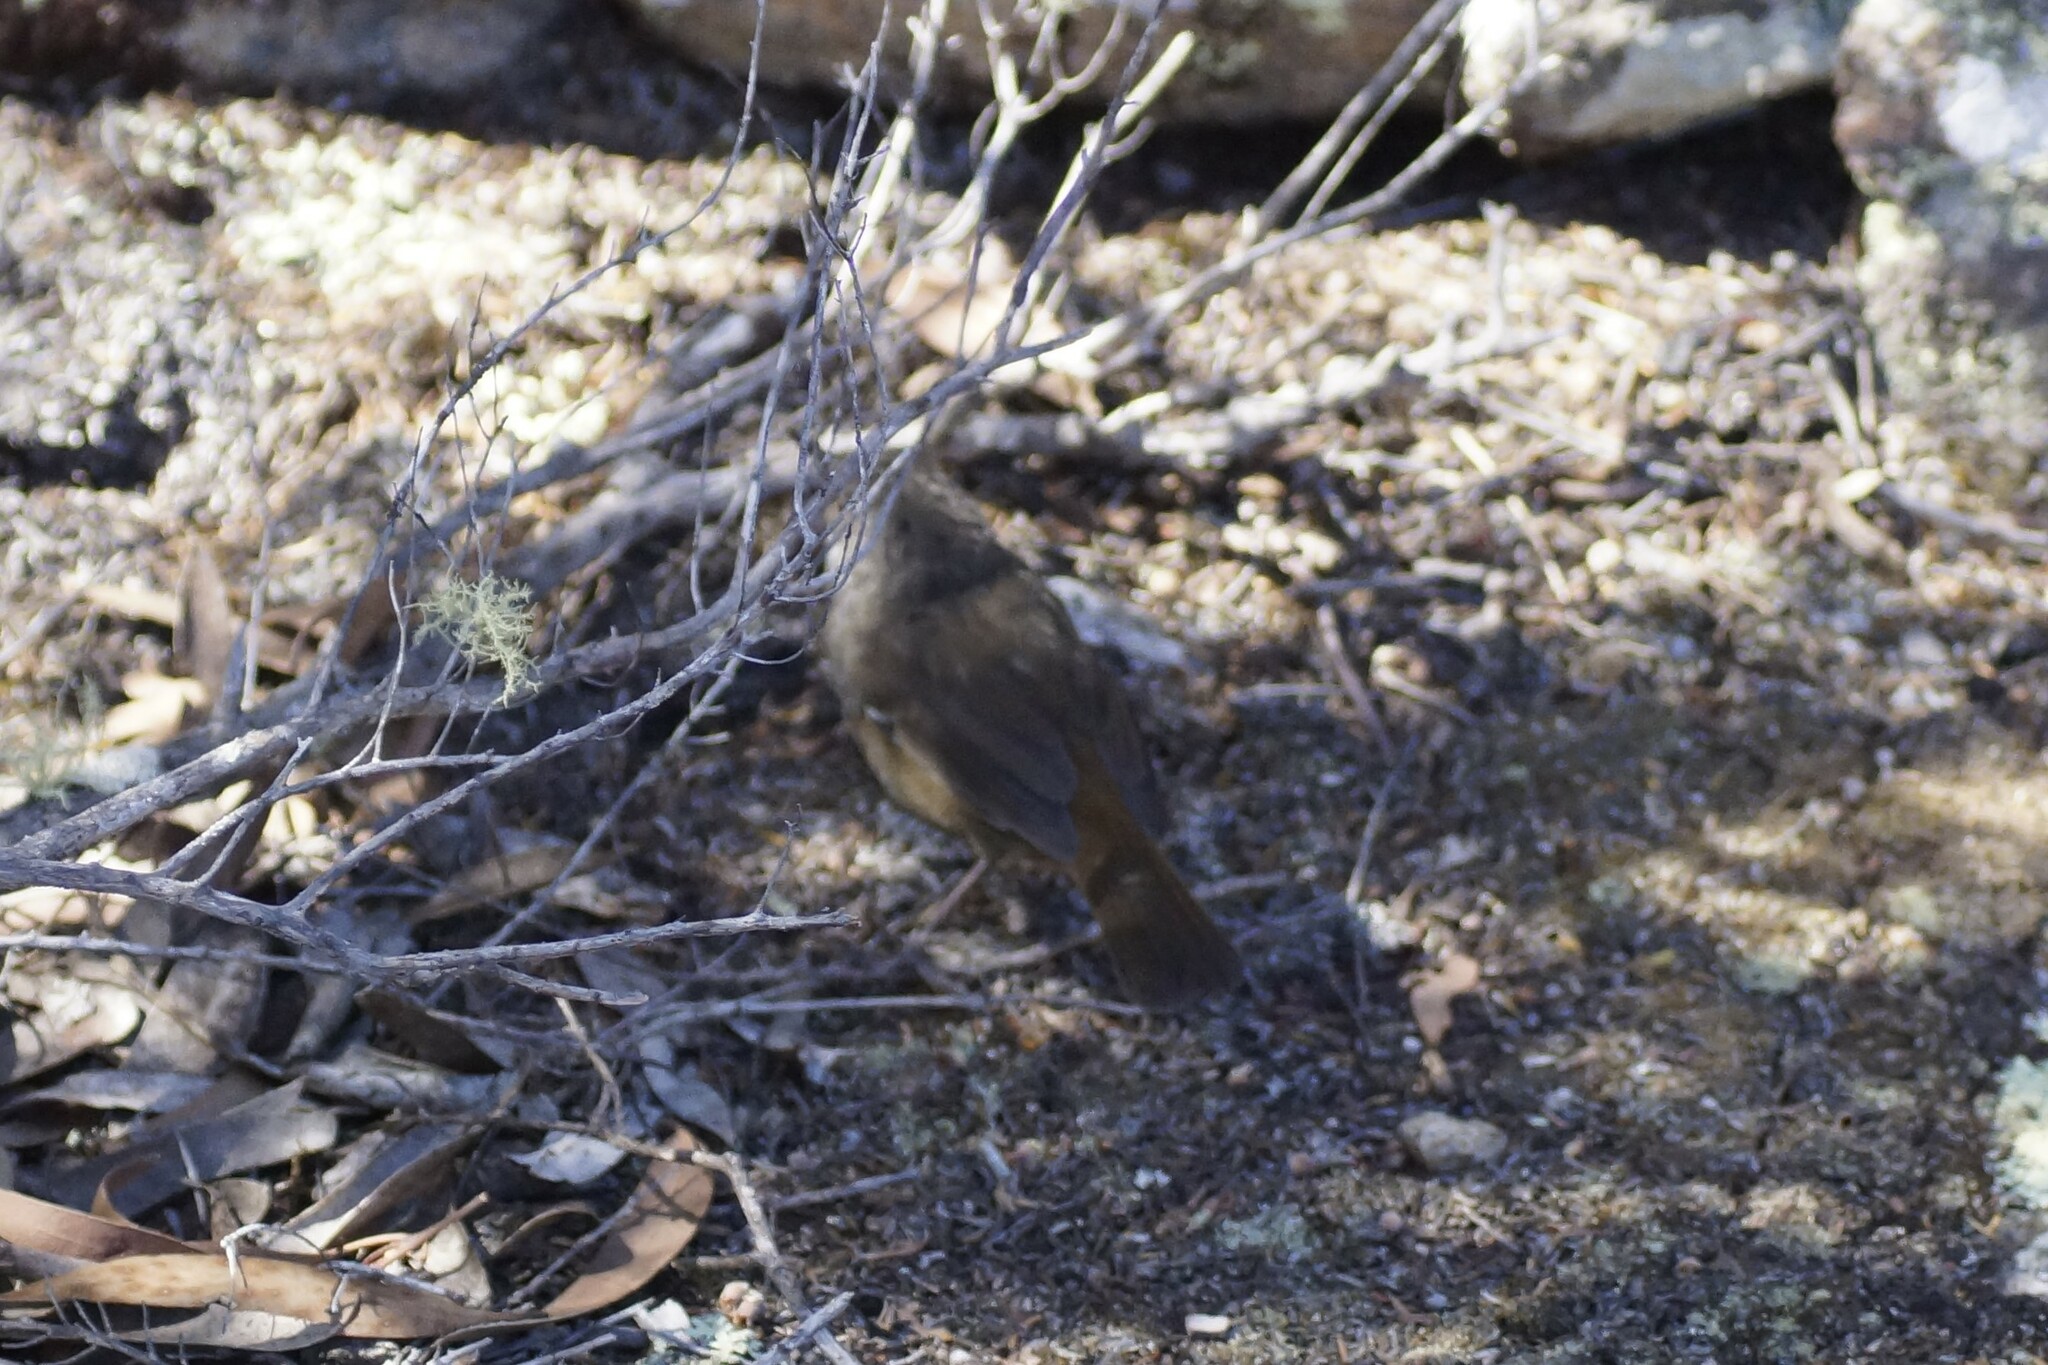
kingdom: Animalia
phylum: Chordata
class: Aves
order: Passeriformes
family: Acanthizidae
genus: Sericornis
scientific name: Sericornis humilis
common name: Tasmanian scrubwren
